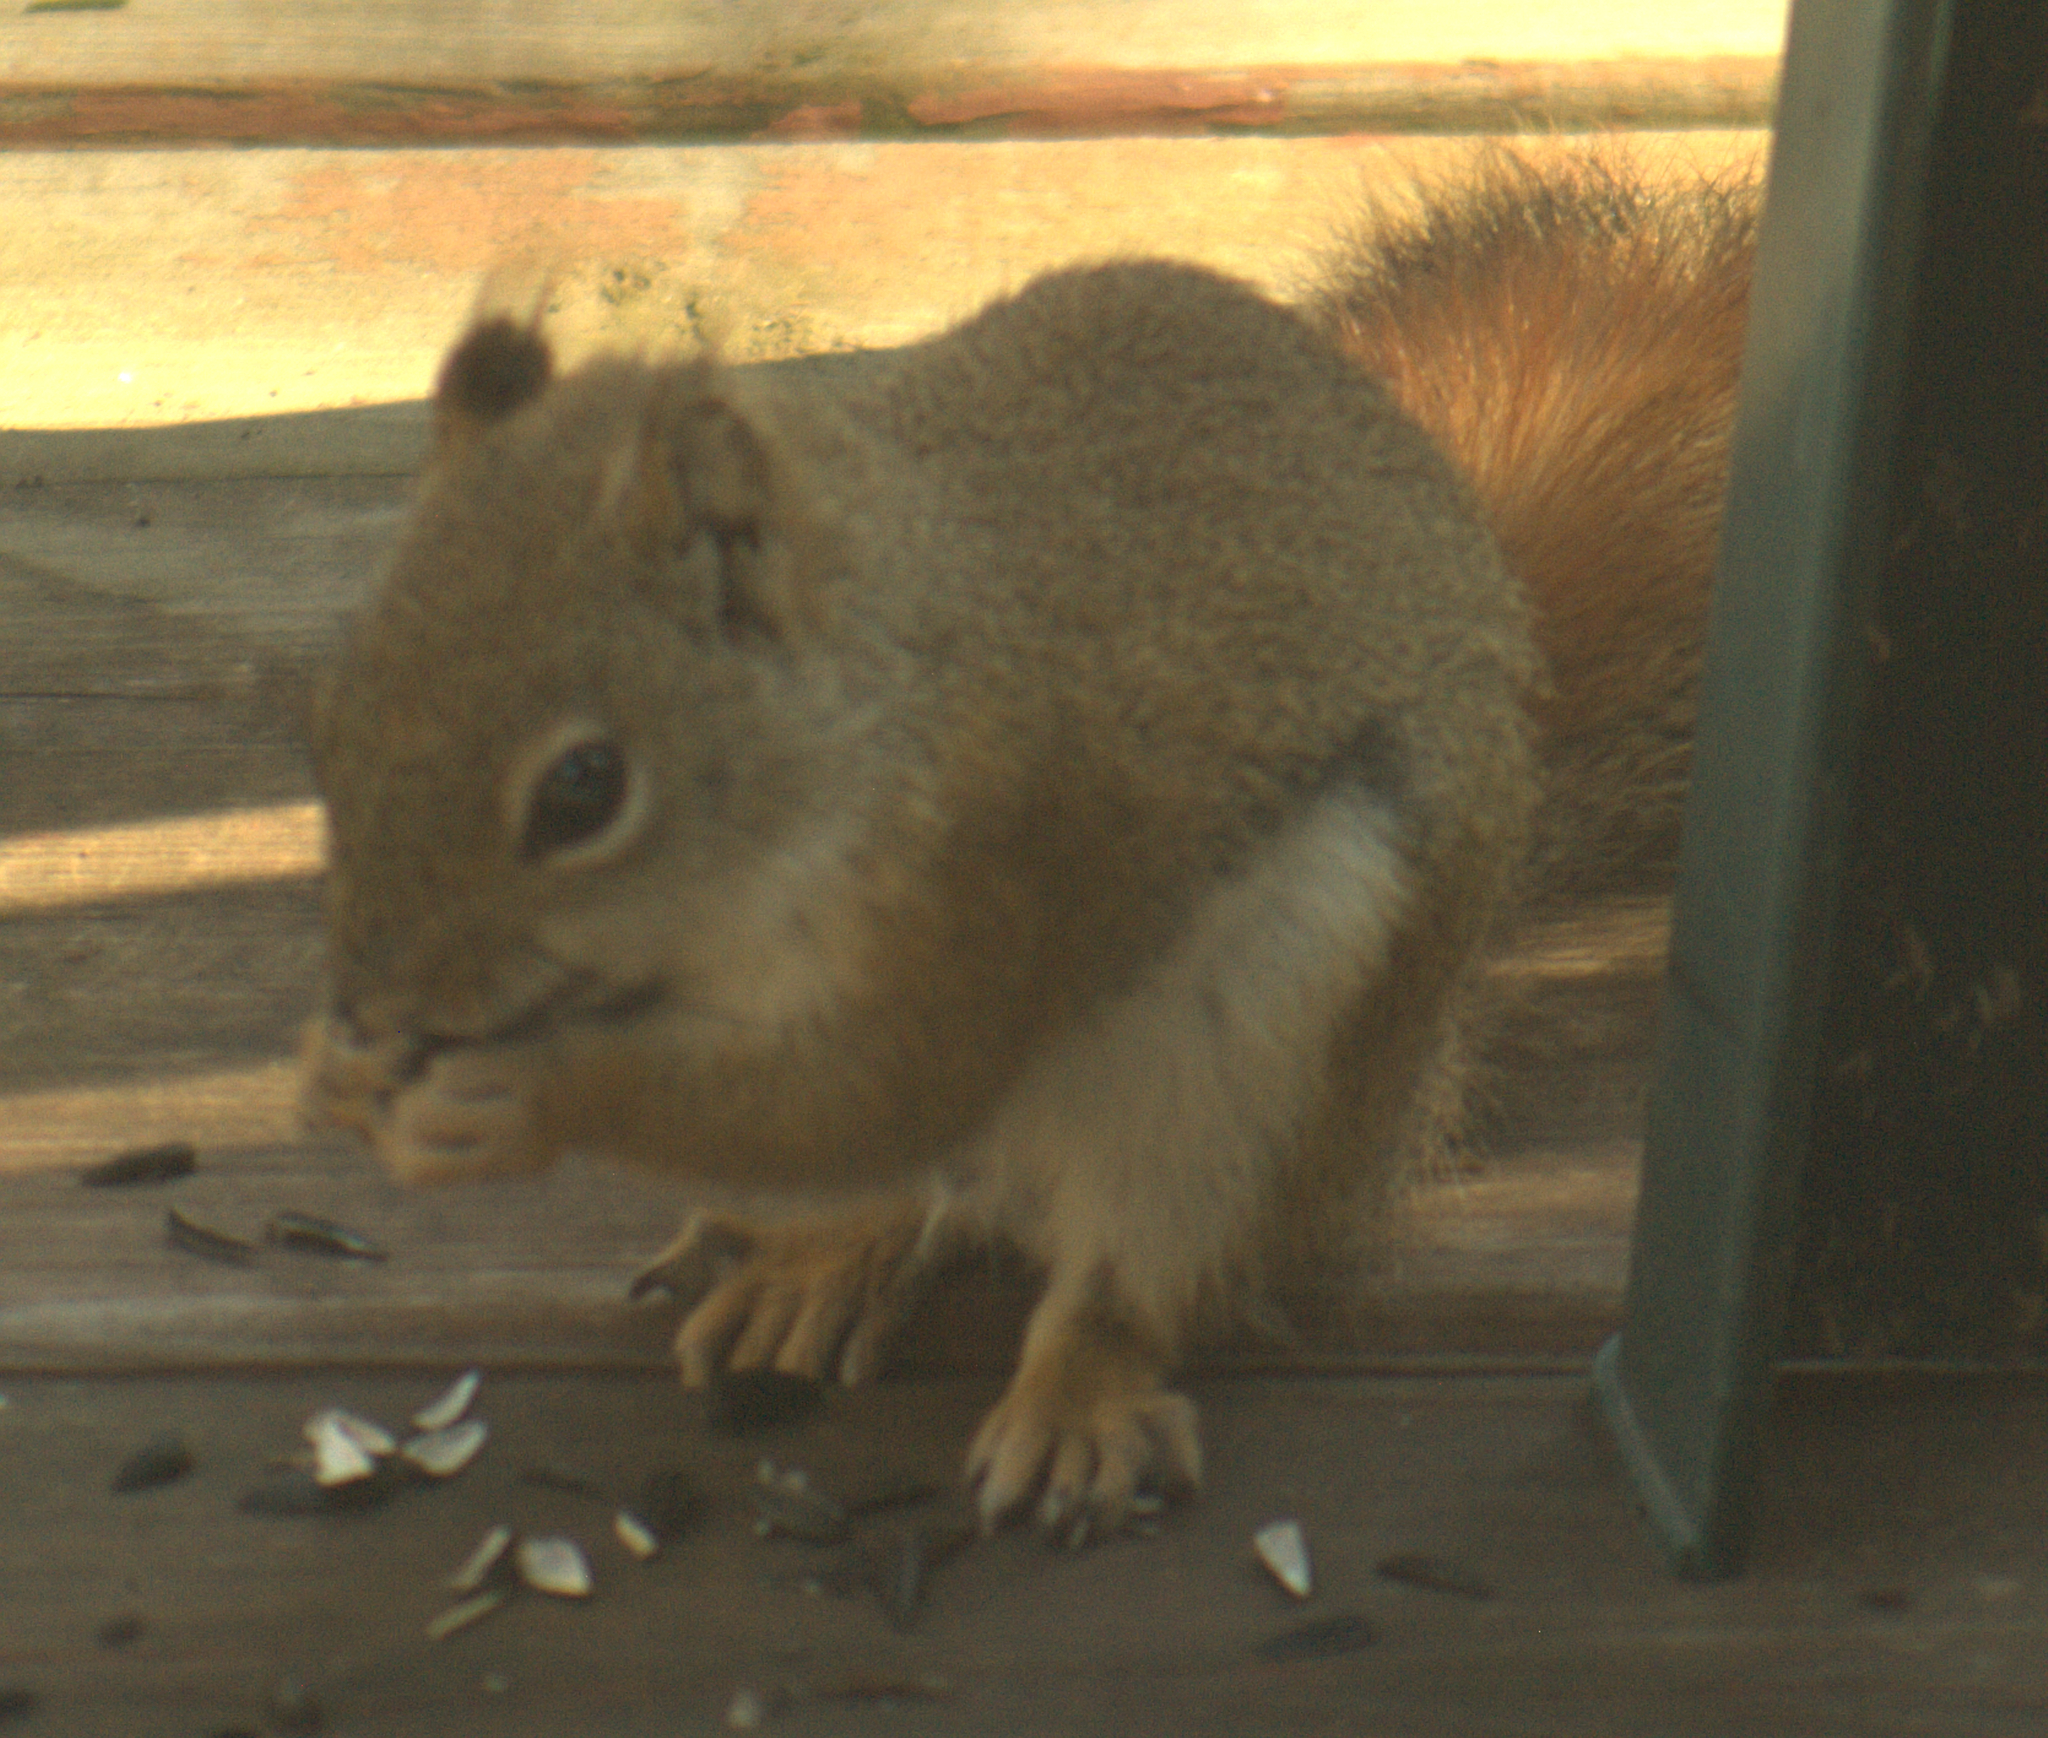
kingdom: Animalia
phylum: Chordata
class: Mammalia
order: Rodentia
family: Sciuridae
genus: Tamiasciurus
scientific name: Tamiasciurus hudsonicus
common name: Red squirrel
